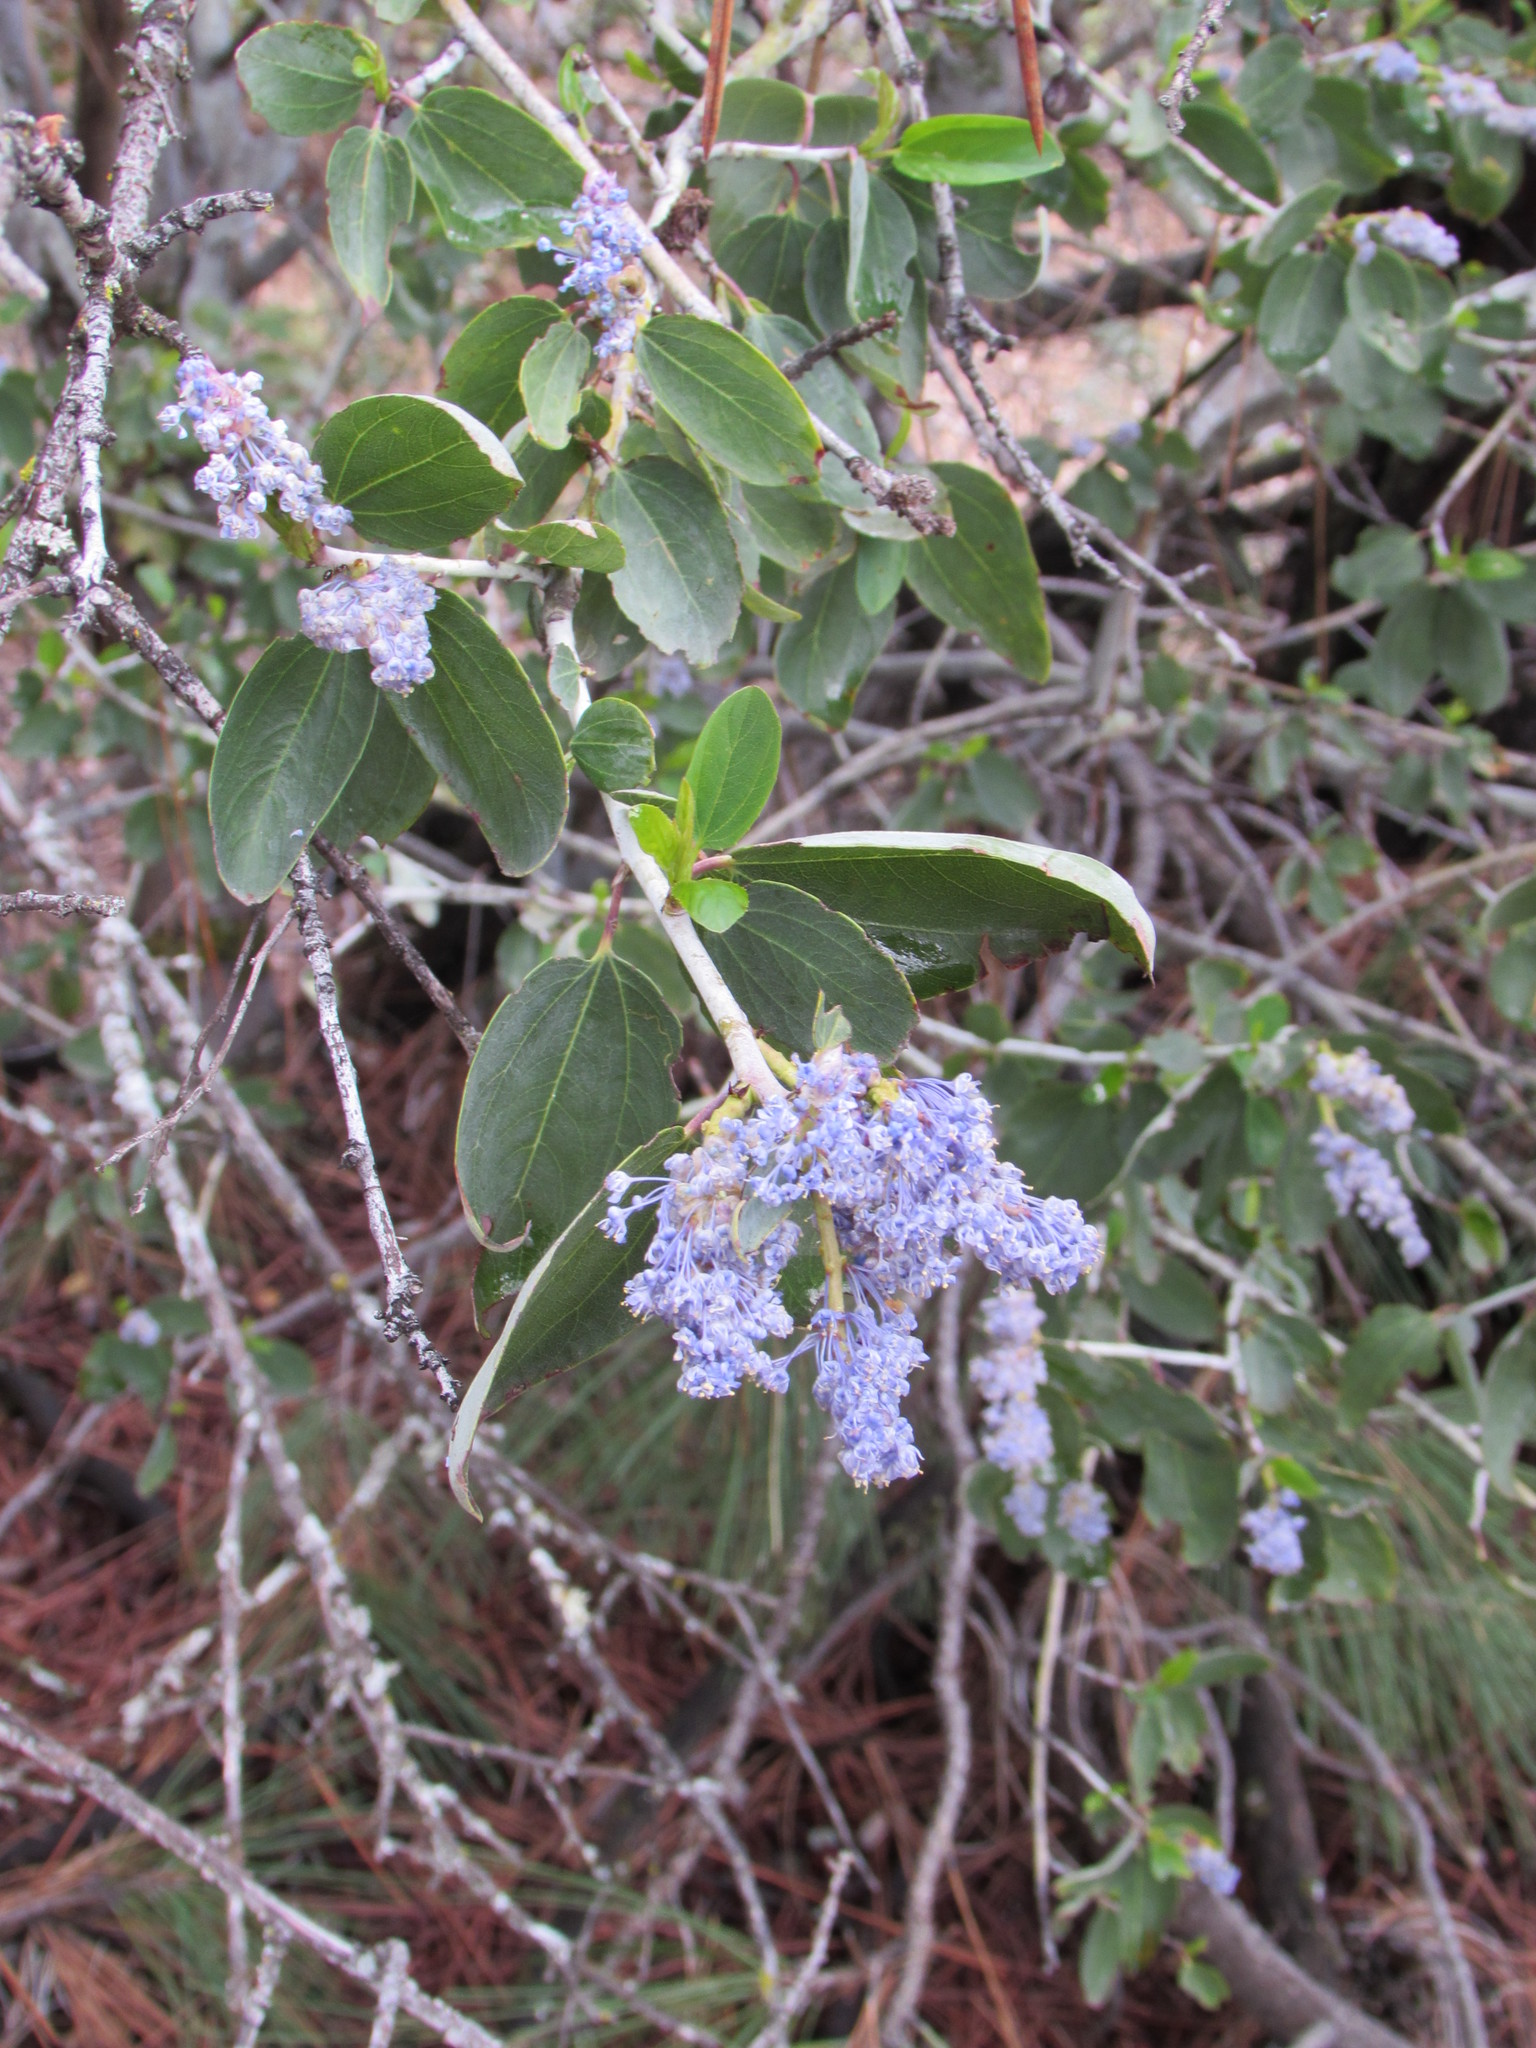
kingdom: Plantae
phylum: Tracheophyta
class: Magnoliopsida
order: Rosales
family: Rhamnaceae
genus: Ceanothus
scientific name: Ceanothus leucodermis
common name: Chaparral whitethorn
